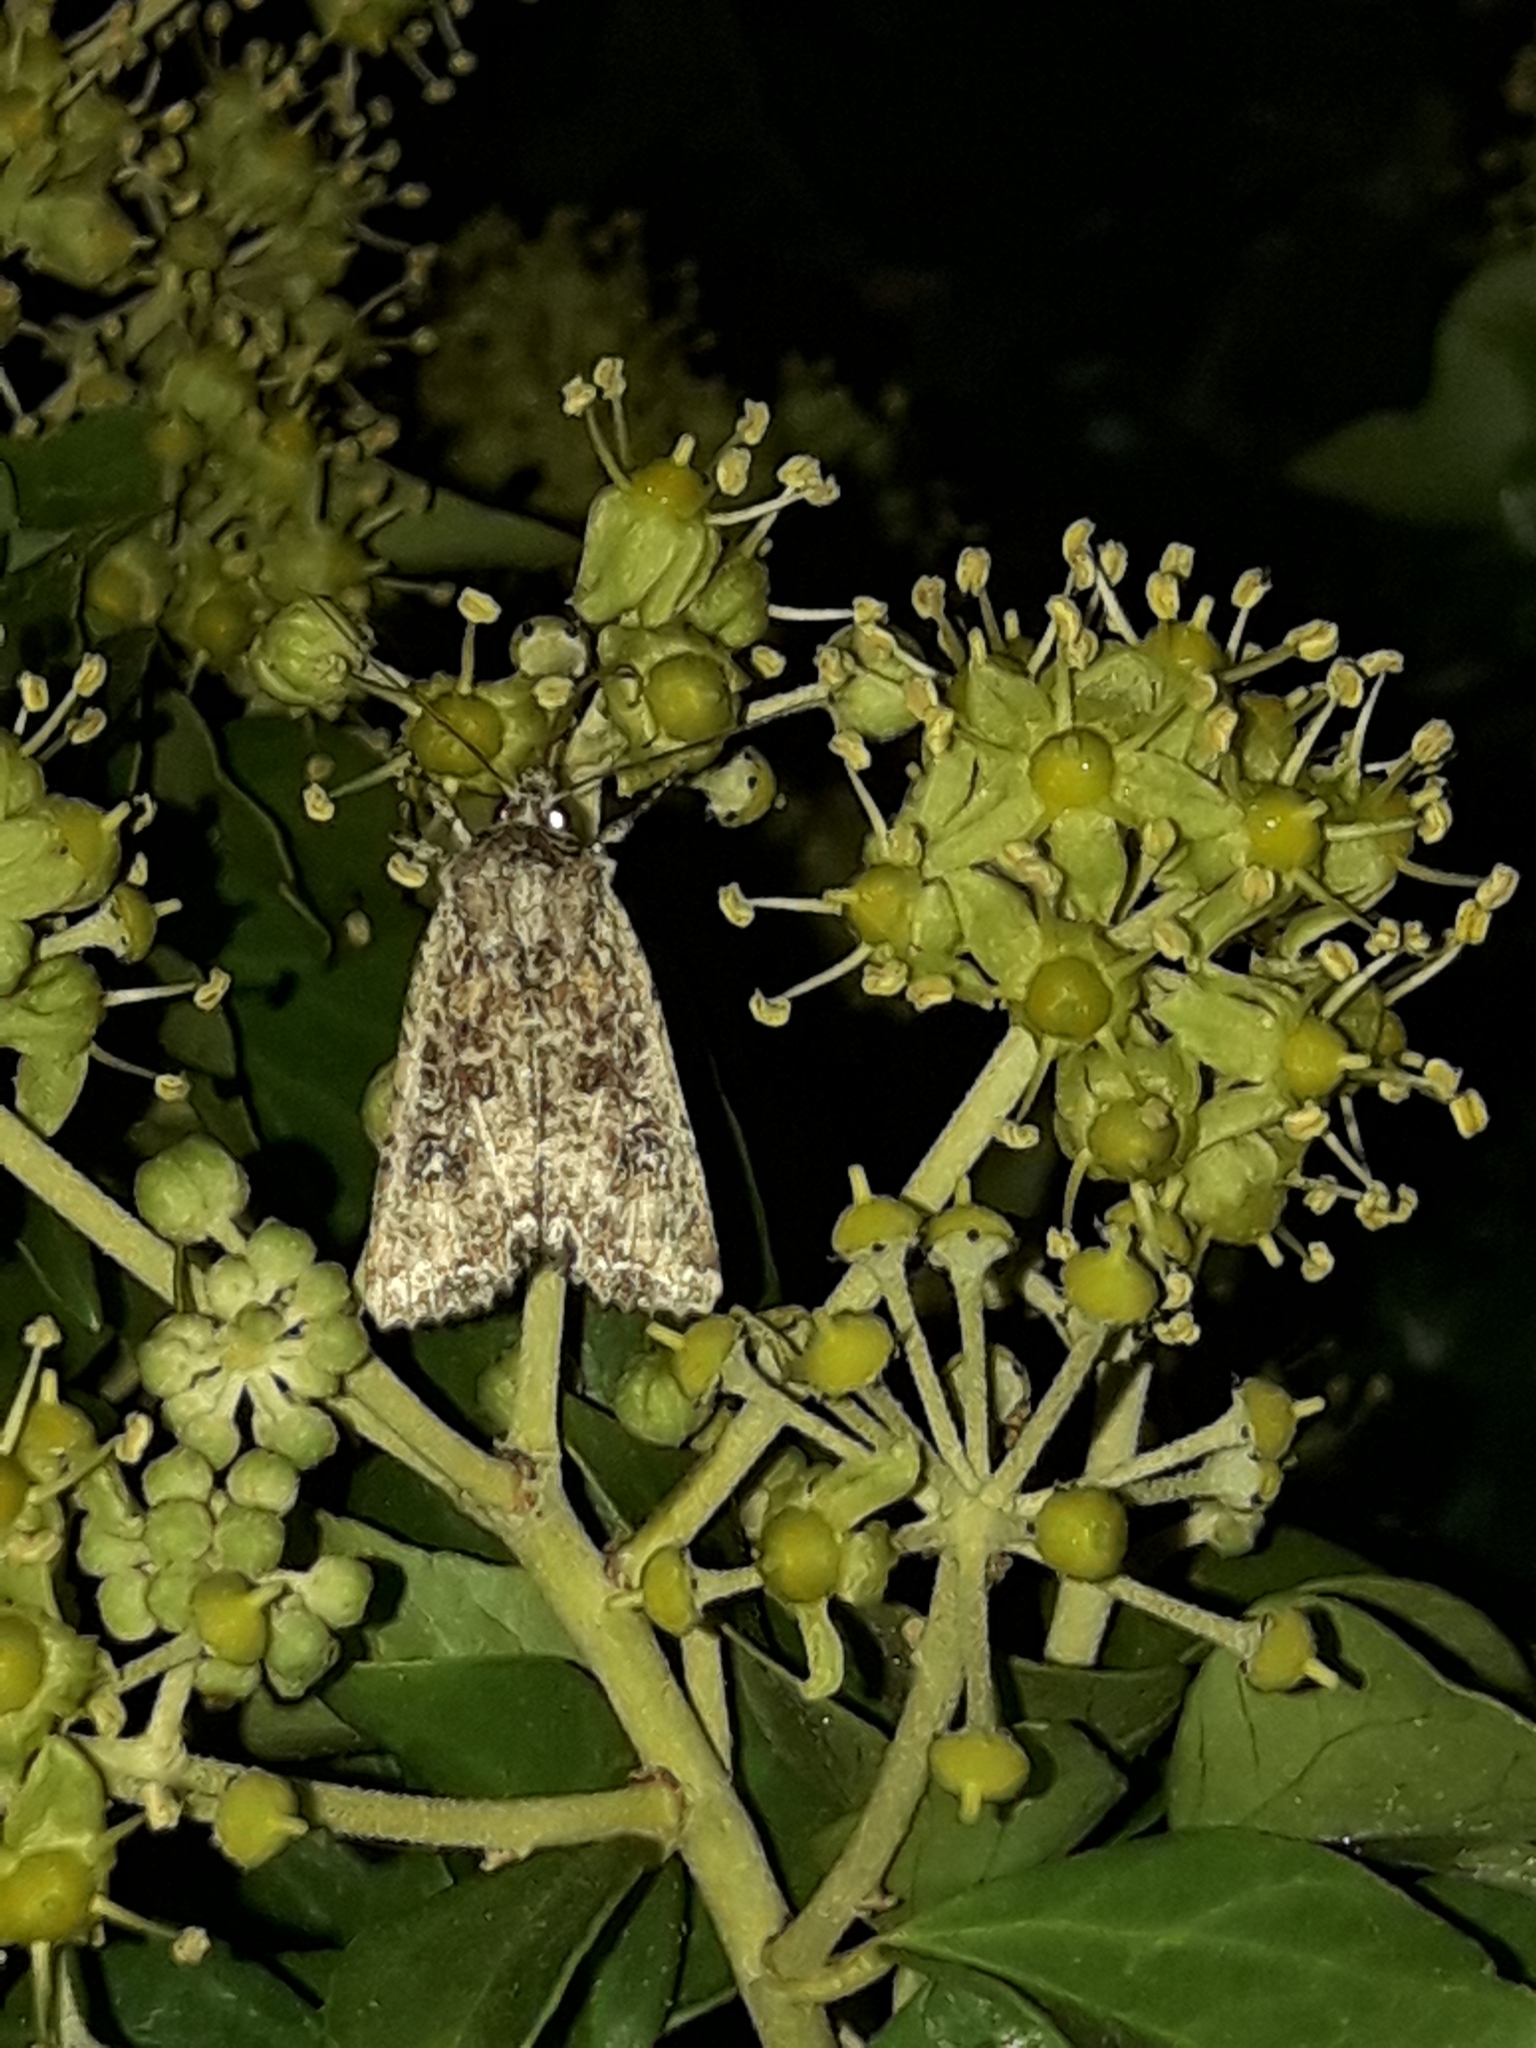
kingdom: Animalia
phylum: Arthropoda
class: Insecta
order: Lepidoptera
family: Noctuidae
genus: Ichneutica
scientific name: Ichneutica morosa
